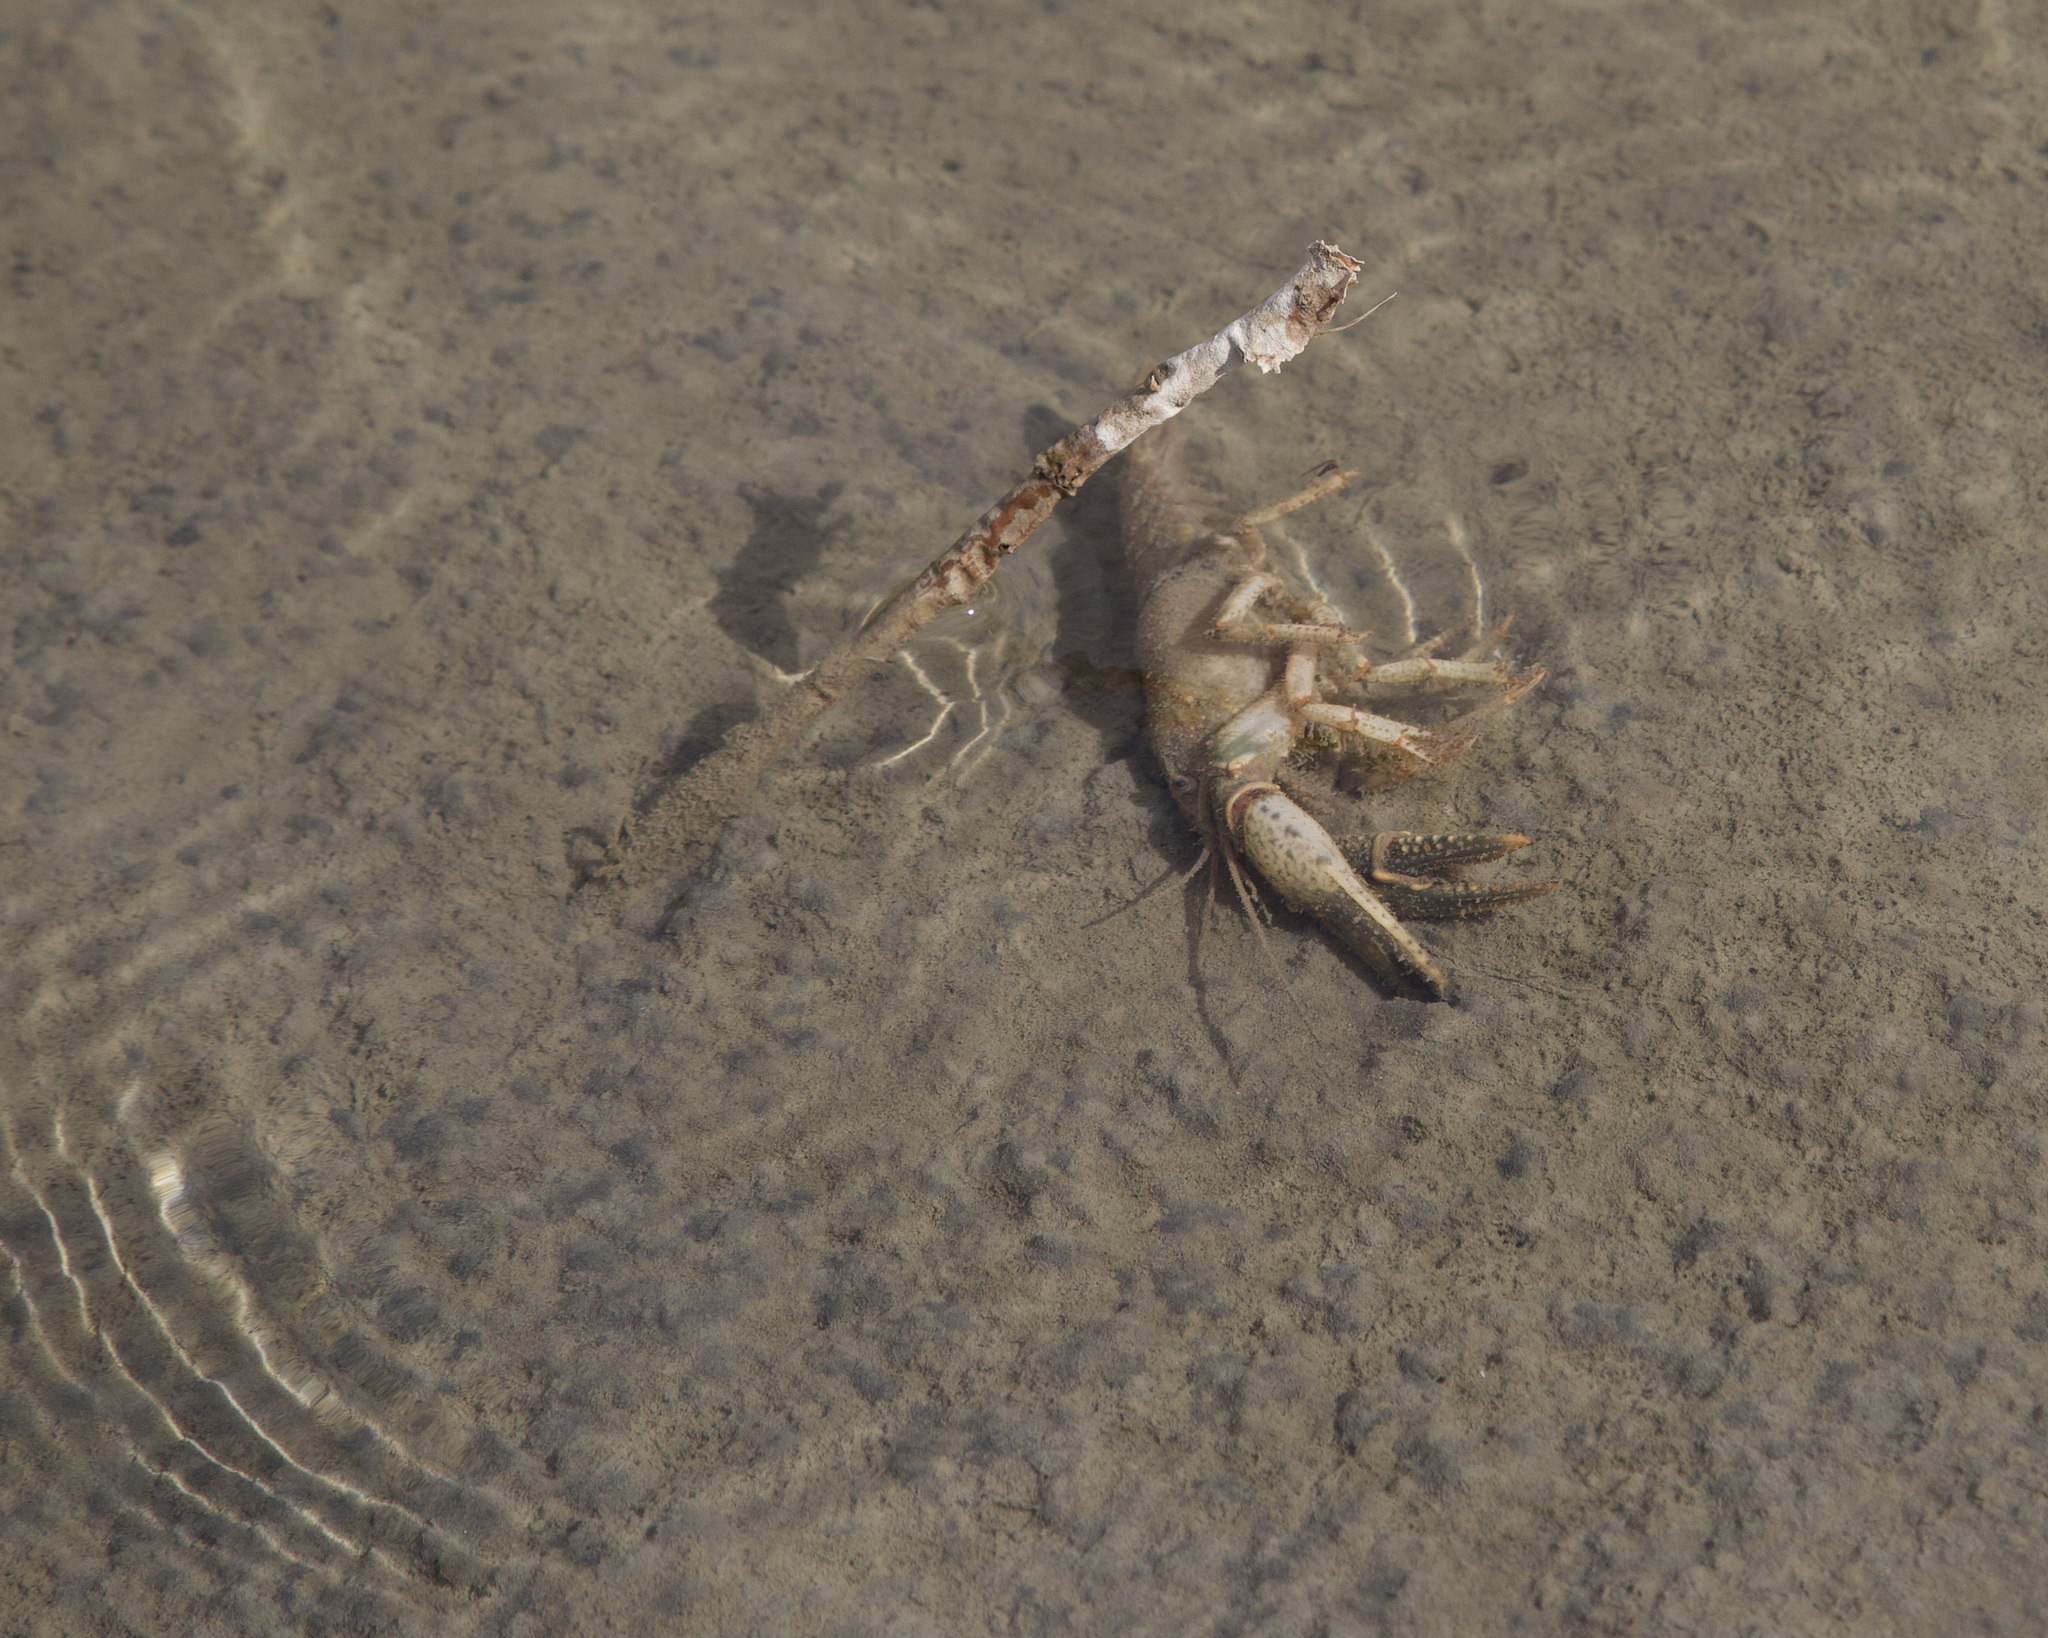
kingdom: Animalia
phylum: Arthropoda
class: Malacostraca
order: Decapoda
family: Cambaridae
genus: Faxonius
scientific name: Faxonius virilis
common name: Virile crayfish
